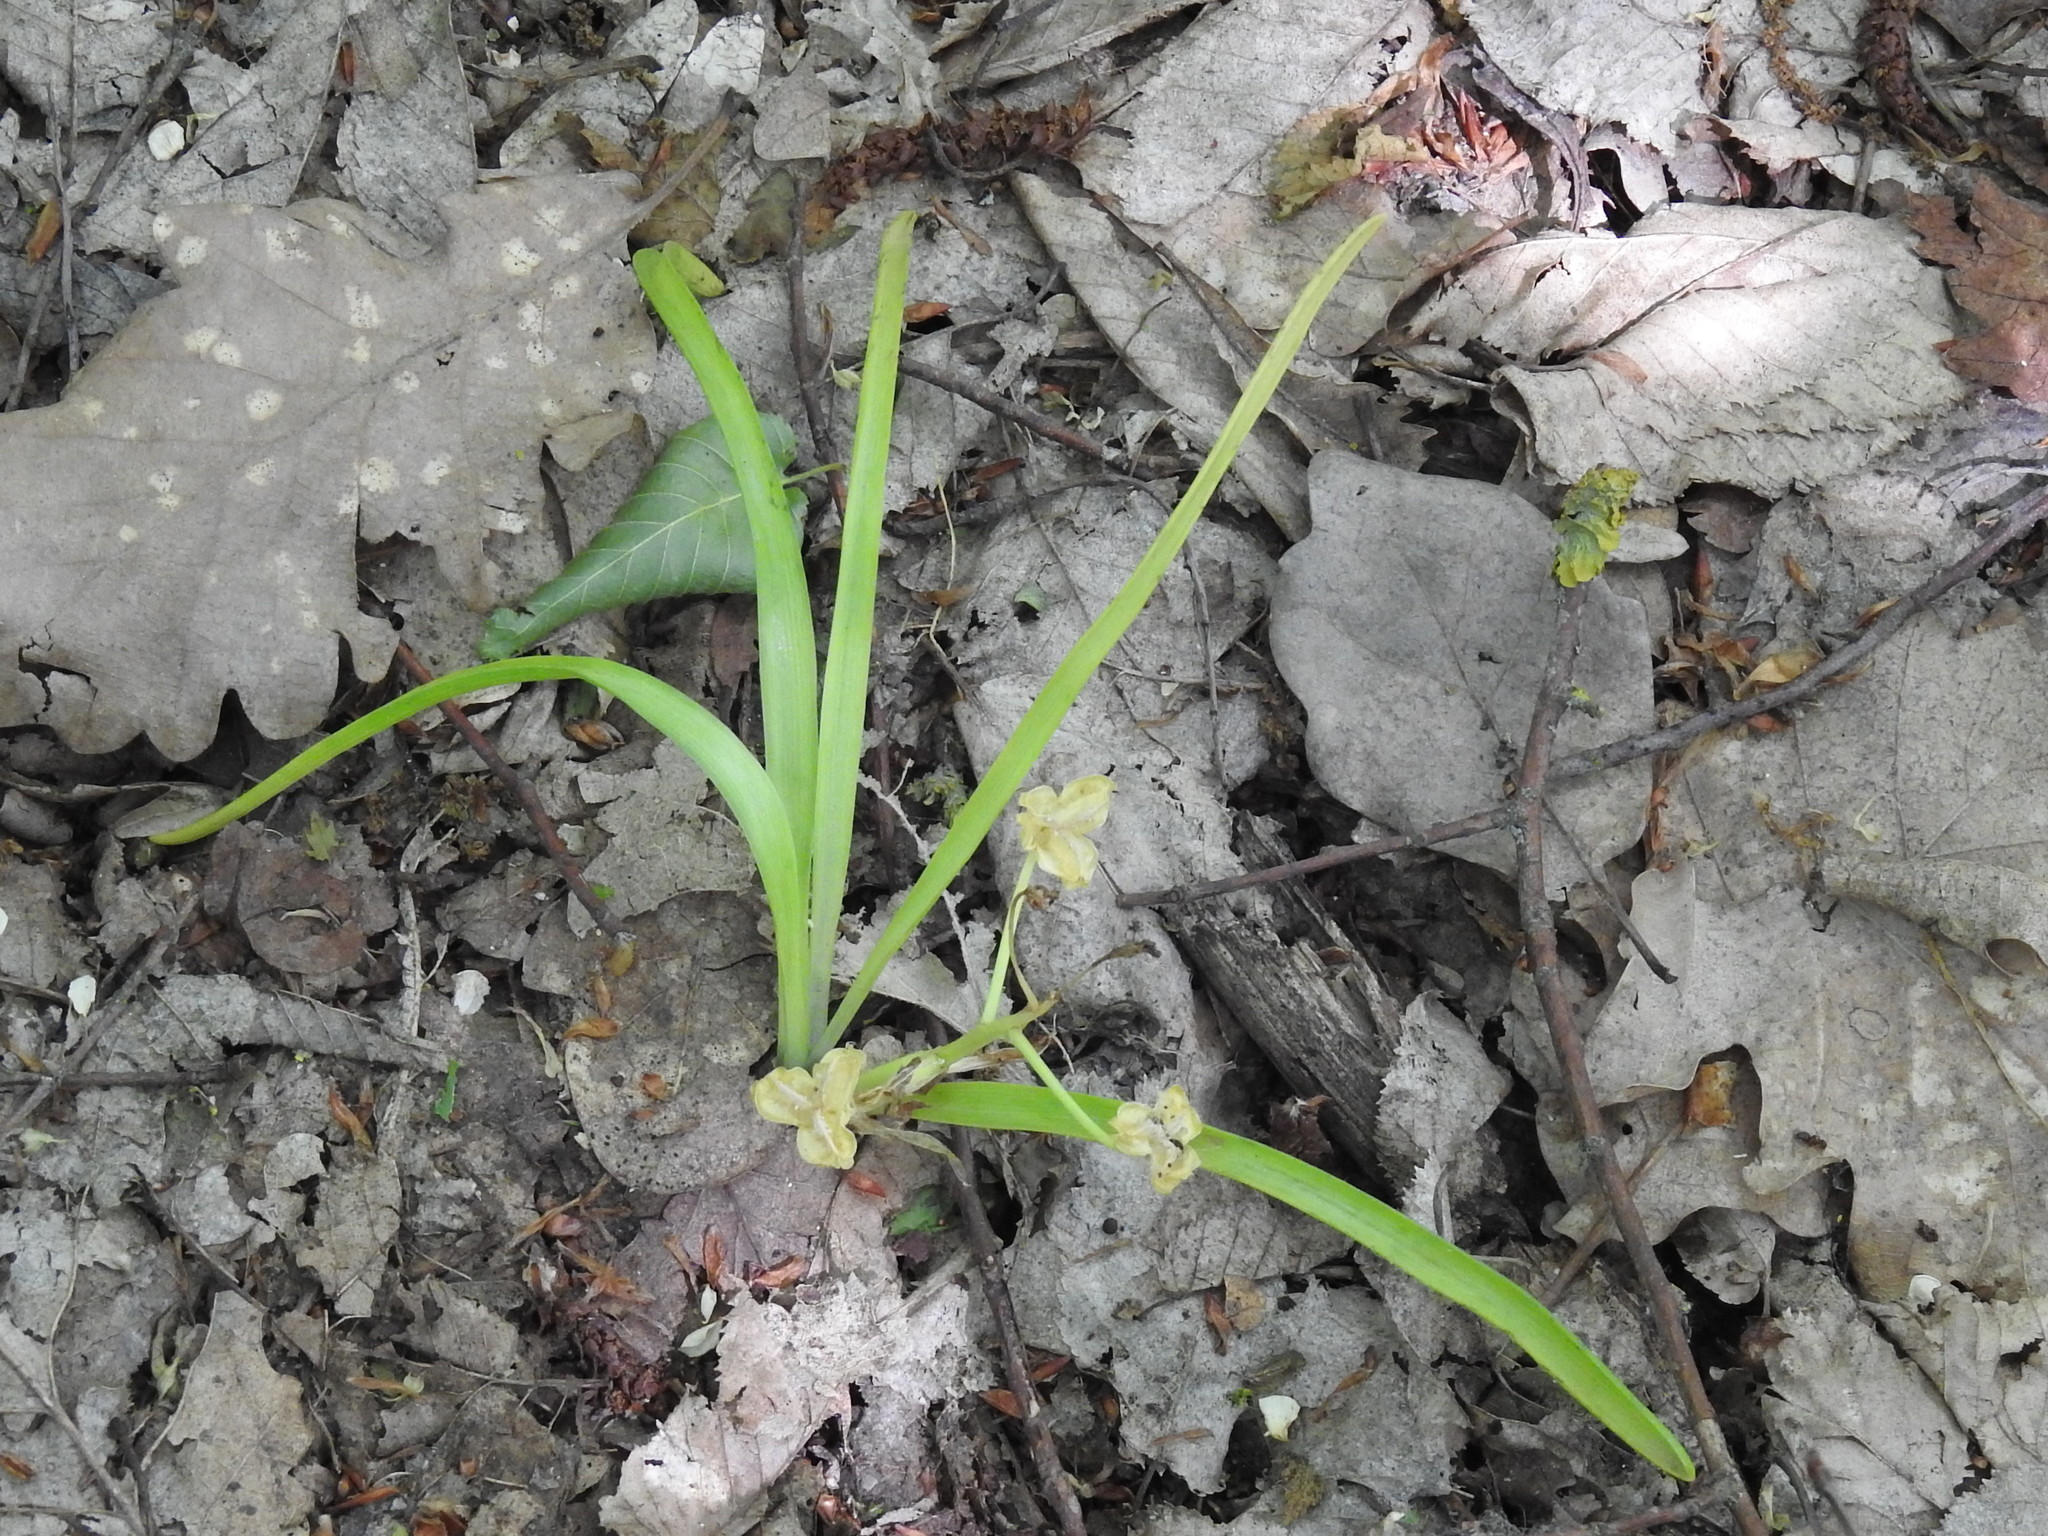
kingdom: Plantae
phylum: Tracheophyta
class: Liliopsida
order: Asparagales
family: Asparagaceae
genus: Ornithogalum
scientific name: Ornithogalum sintenisii
